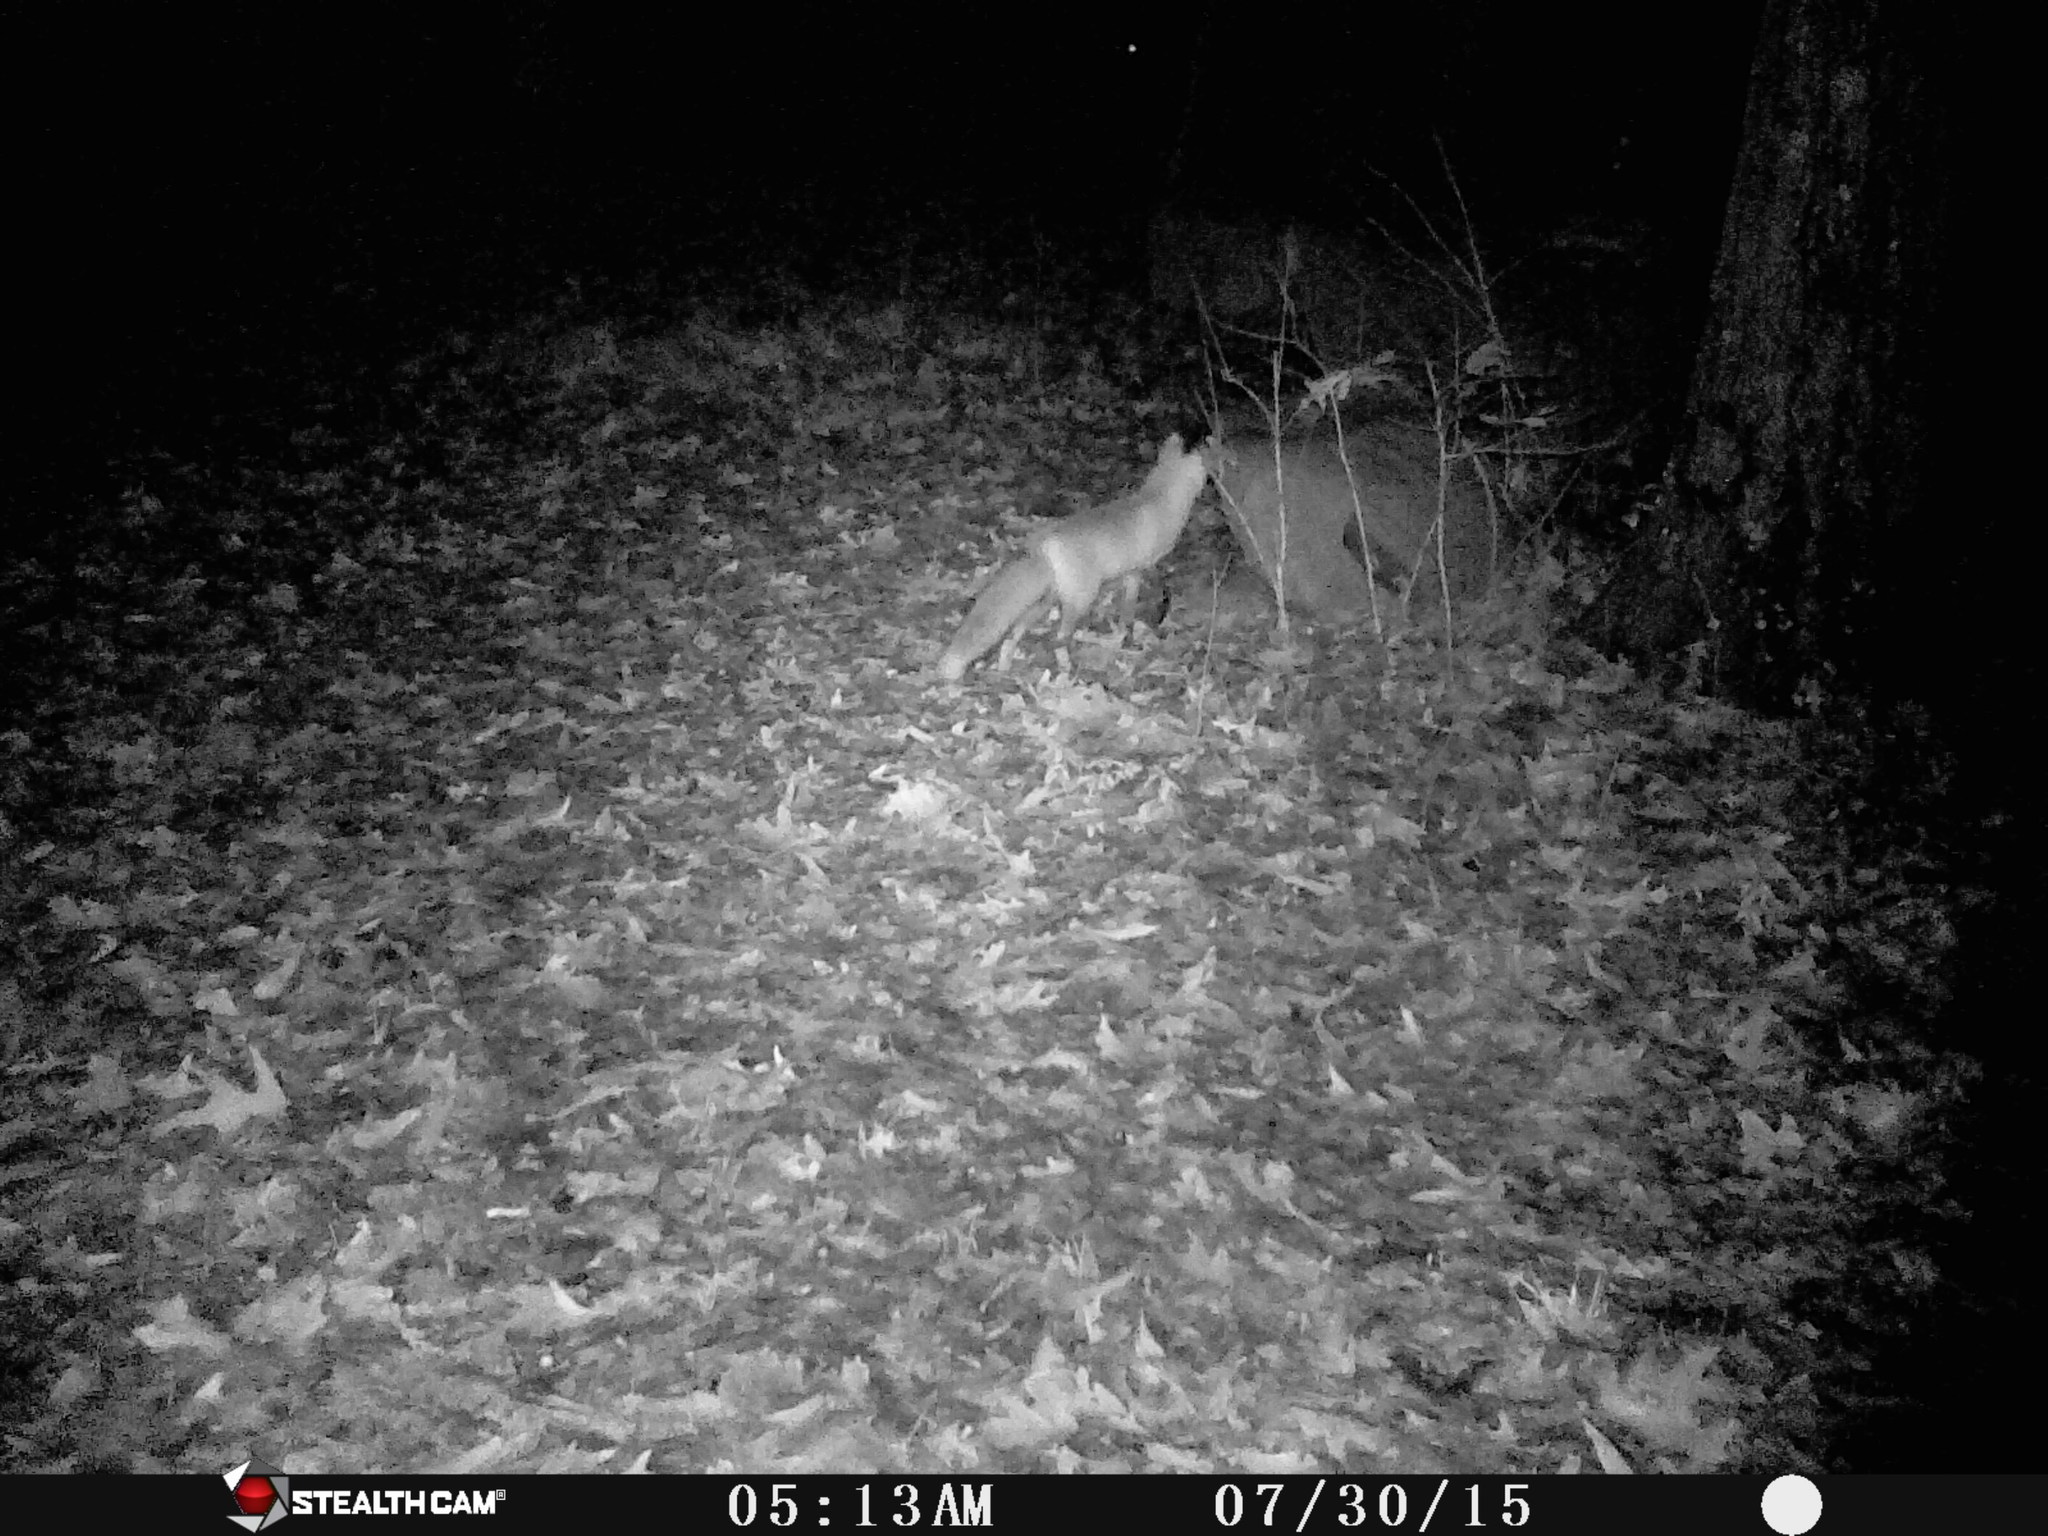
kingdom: Animalia
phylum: Chordata
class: Mammalia
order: Carnivora
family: Canidae
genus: Vulpes
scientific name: Vulpes vulpes
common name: Red fox
